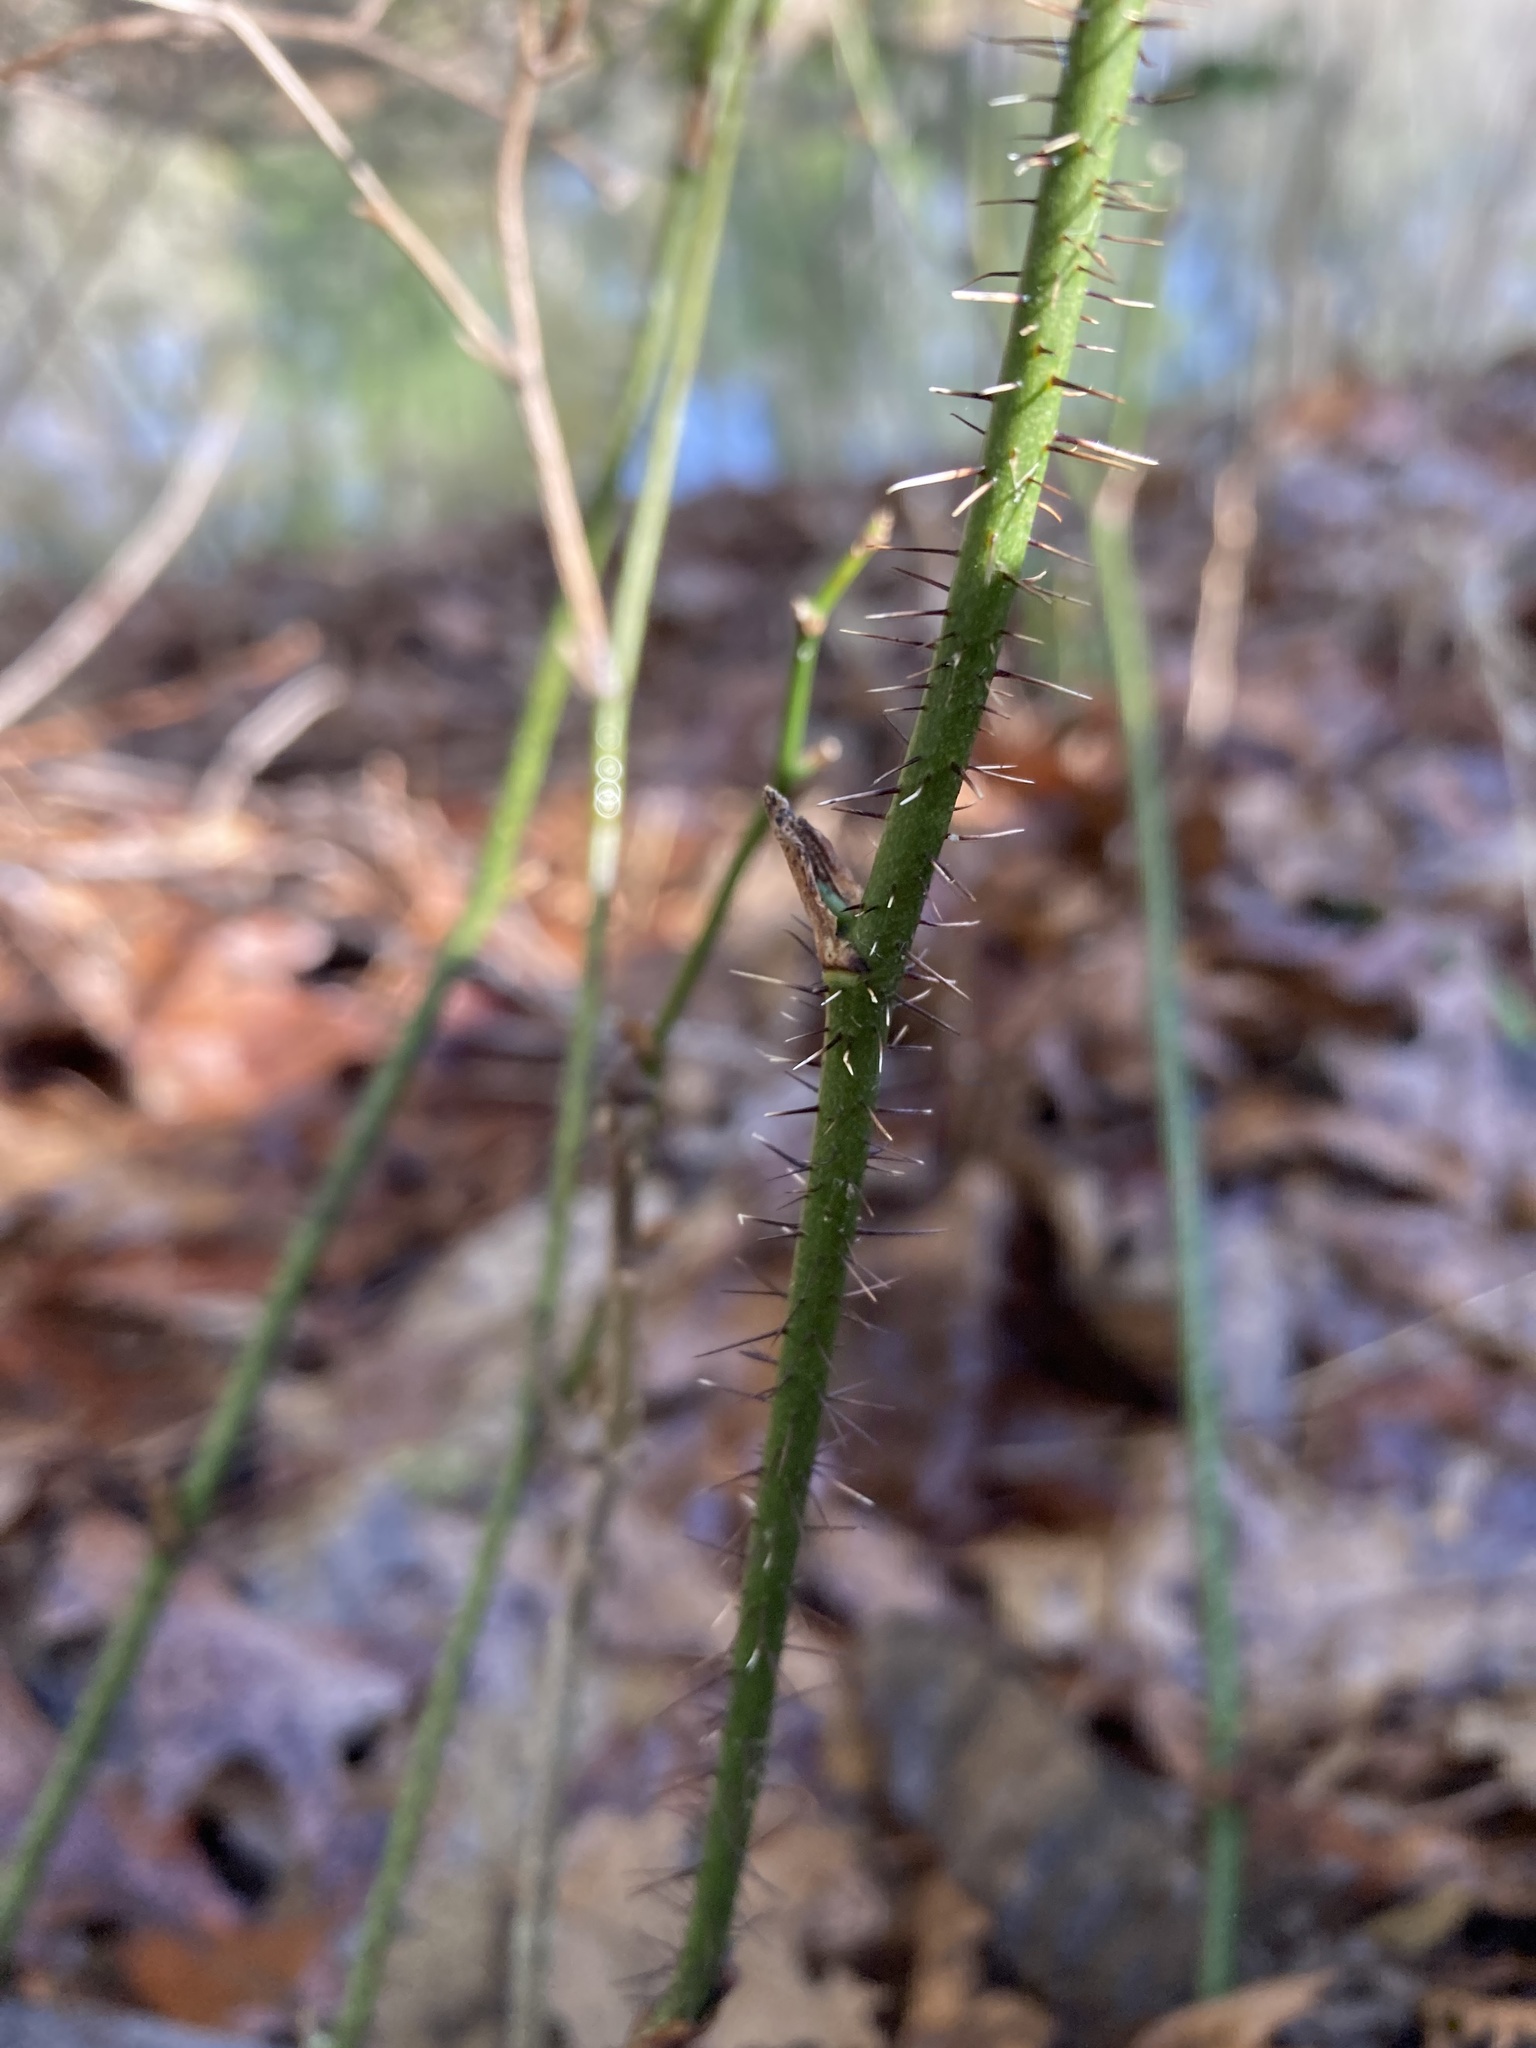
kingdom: Plantae
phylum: Tracheophyta
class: Liliopsida
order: Liliales
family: Smilacaceae
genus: Smilax
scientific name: Smilax tamnoides
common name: Hellfetter
